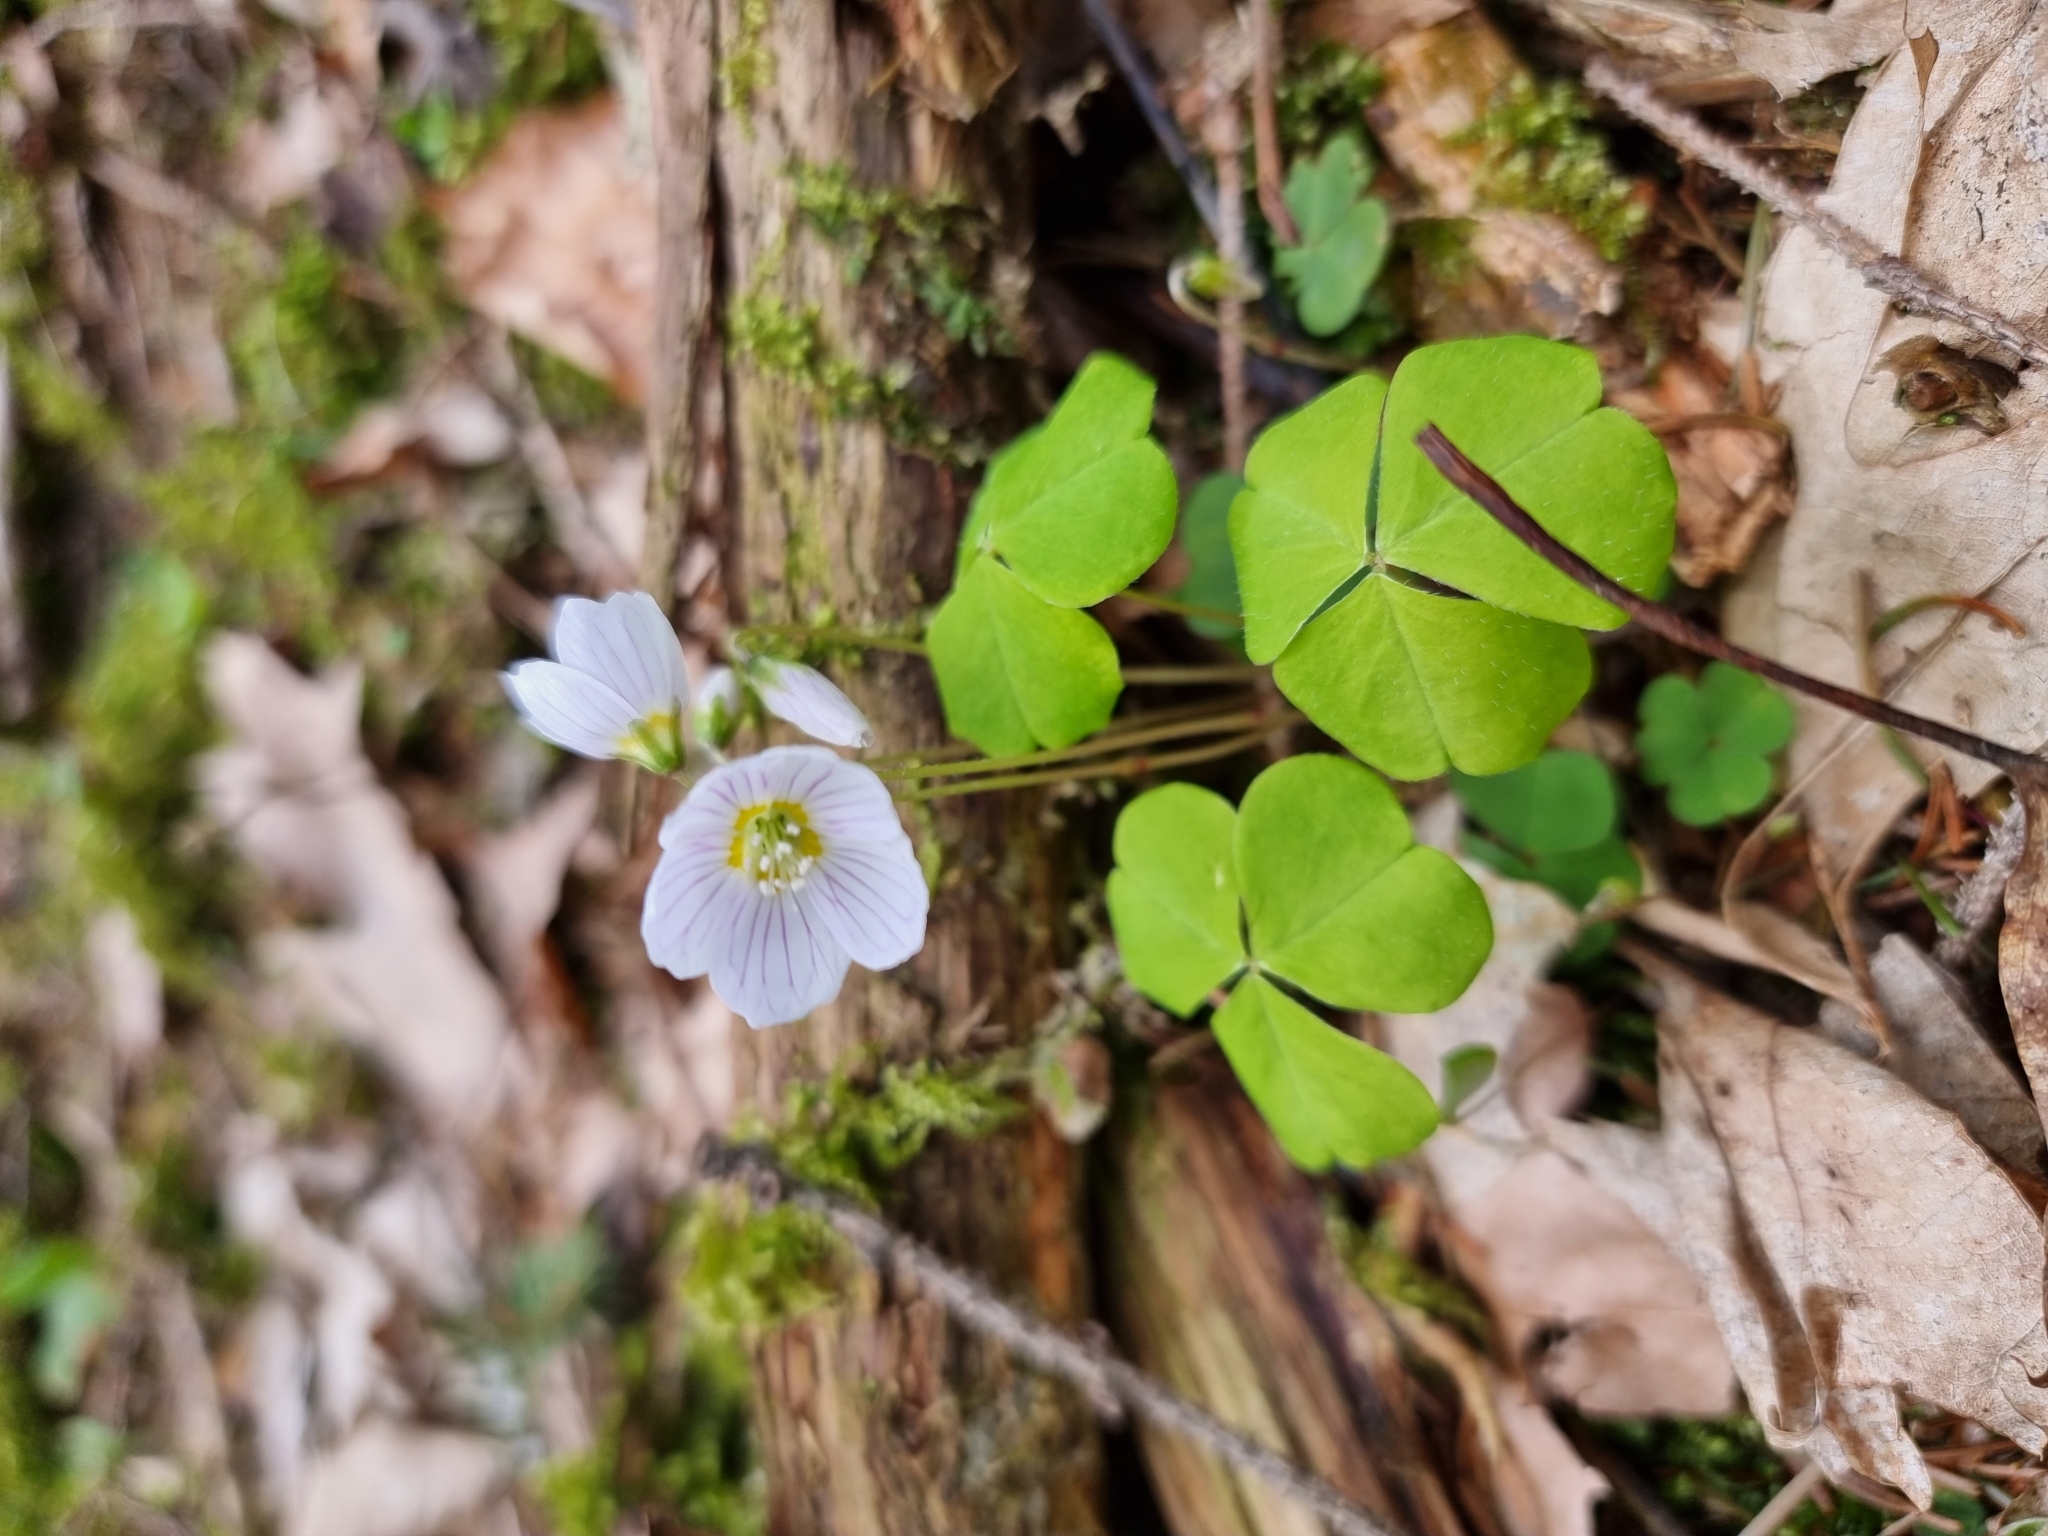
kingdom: Plantae
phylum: Tracheophyta
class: Magnoliopsida
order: Oxalidales
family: Oxalidaceae
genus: Oxalis
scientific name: Oxalis acetosella
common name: Wood-sorrel
